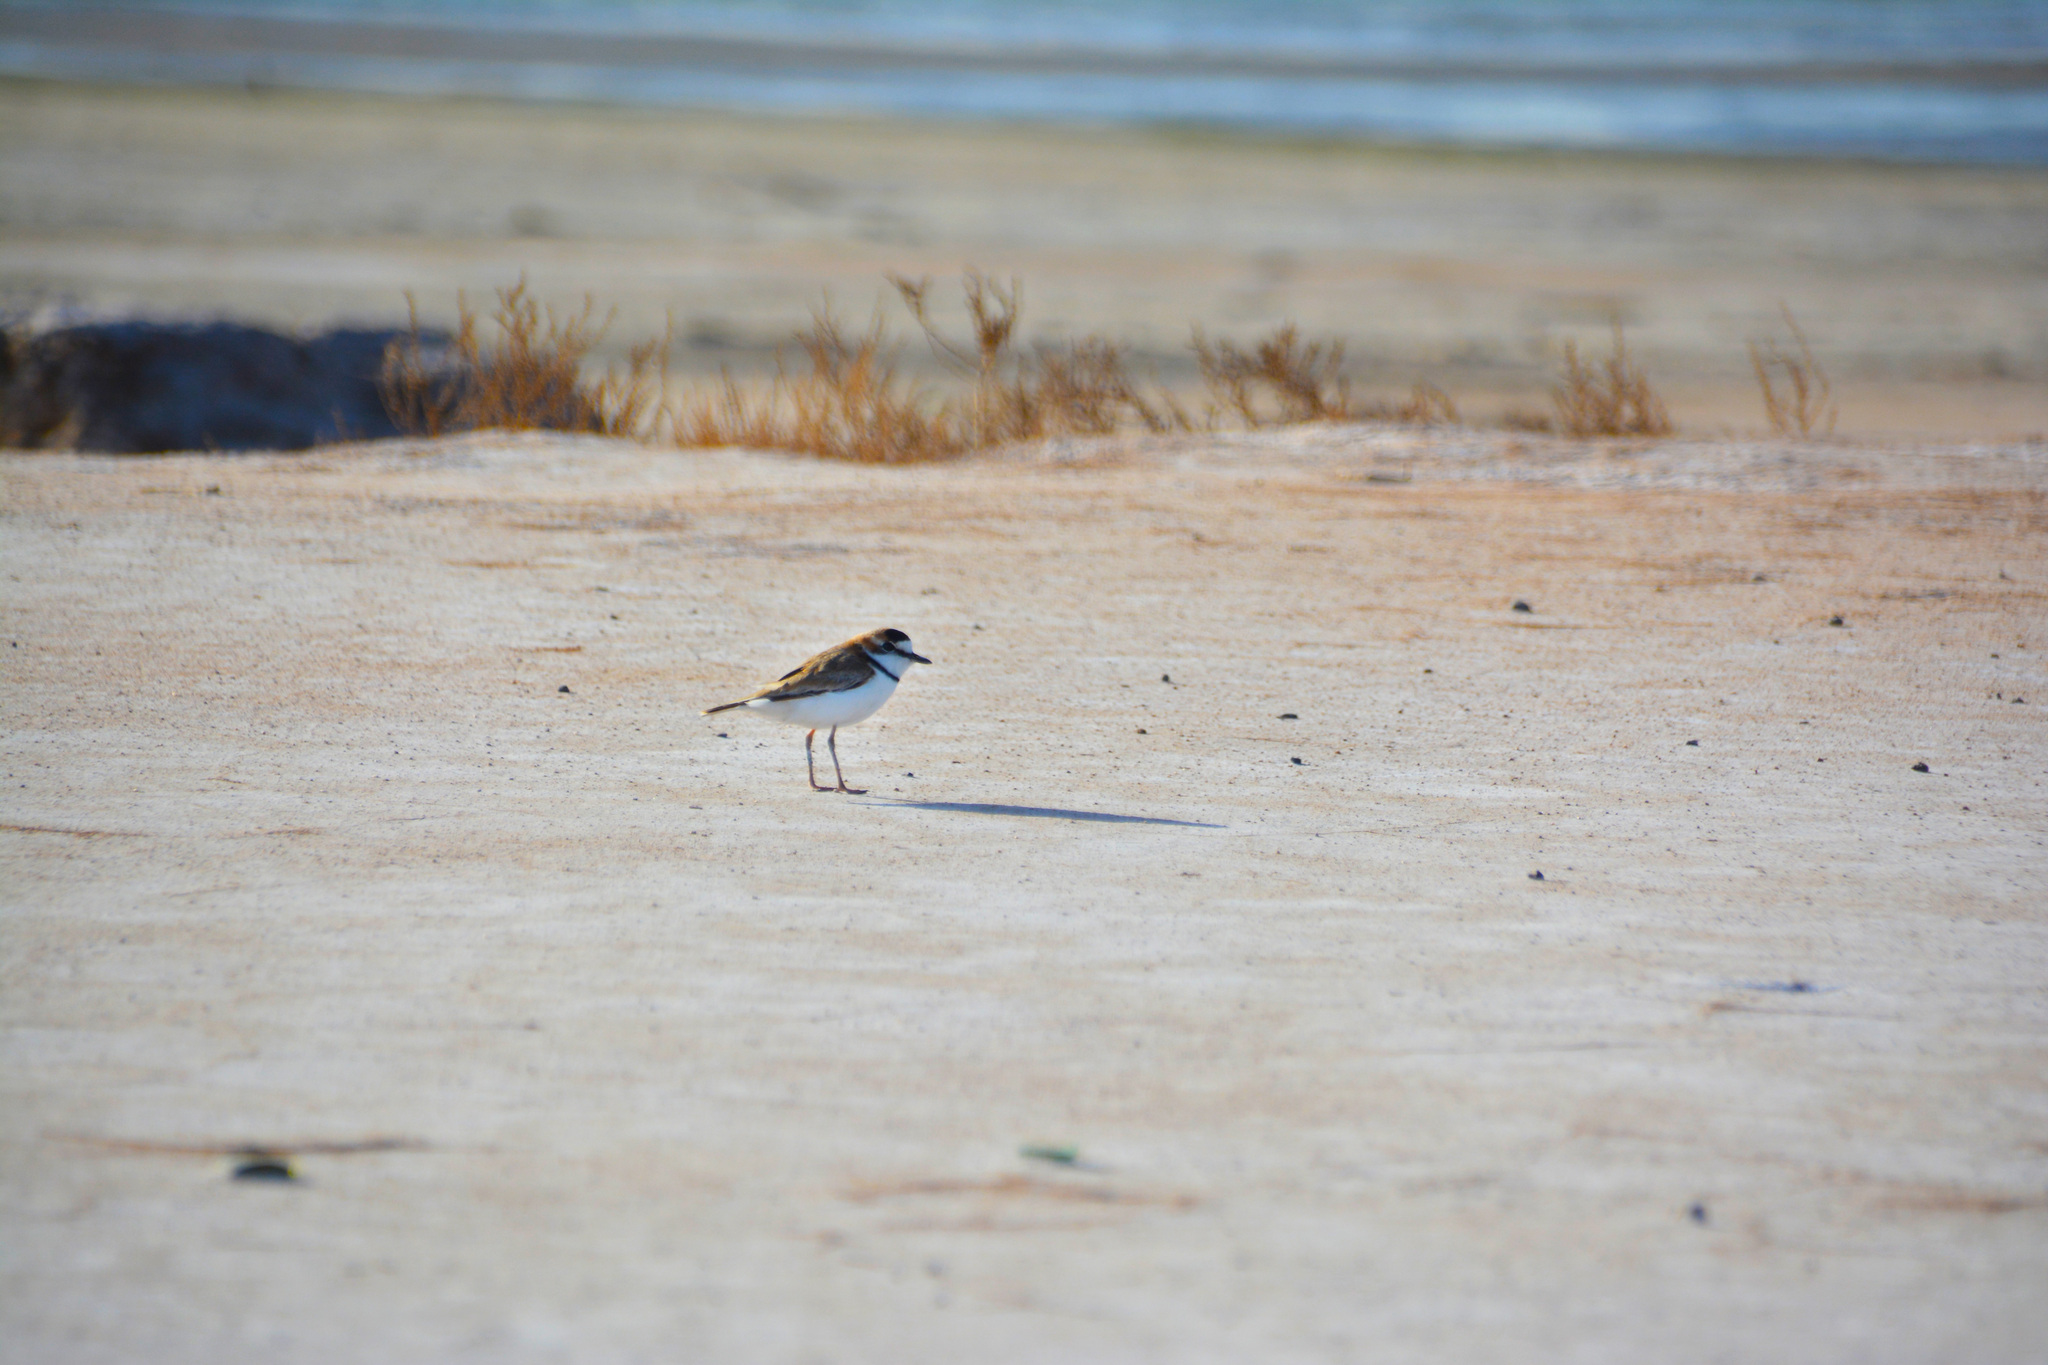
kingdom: Animalia
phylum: Chordata
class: Aves
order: Charadriiformes
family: Charadriidae
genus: Anarhynchus
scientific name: Anarhynchus
